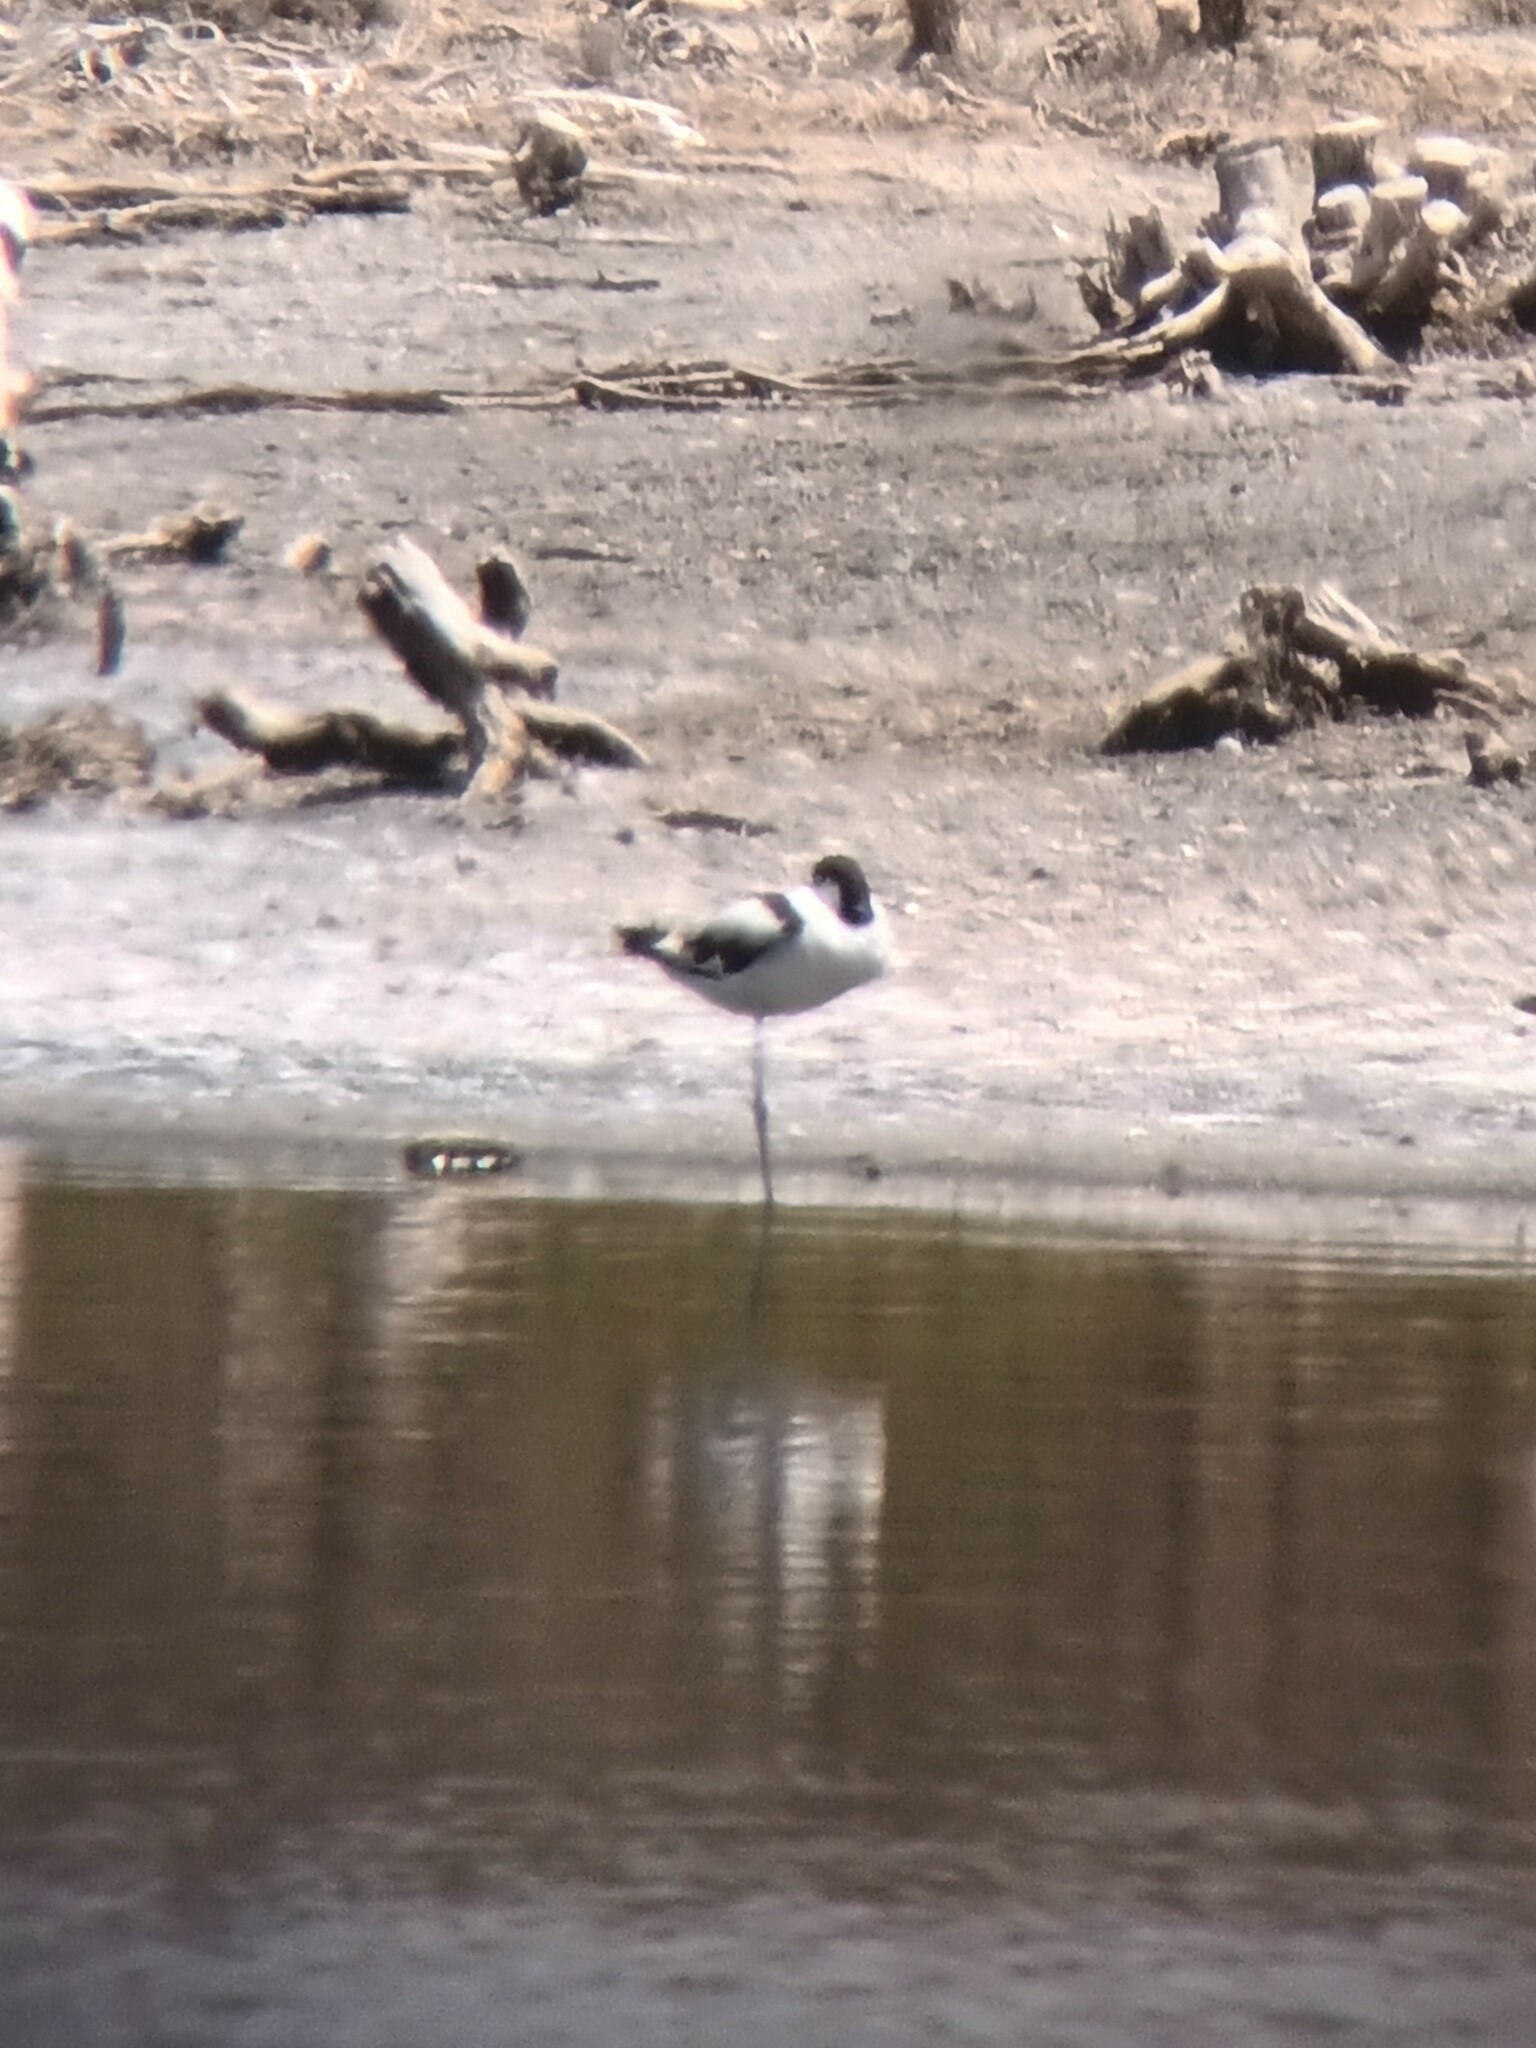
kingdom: Animalia
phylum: Chordata
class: Aves
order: Charadriiformes
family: Recurvirostridae
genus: Recurvirostra
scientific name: Recurvirostra avosetta
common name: Pied avocet
